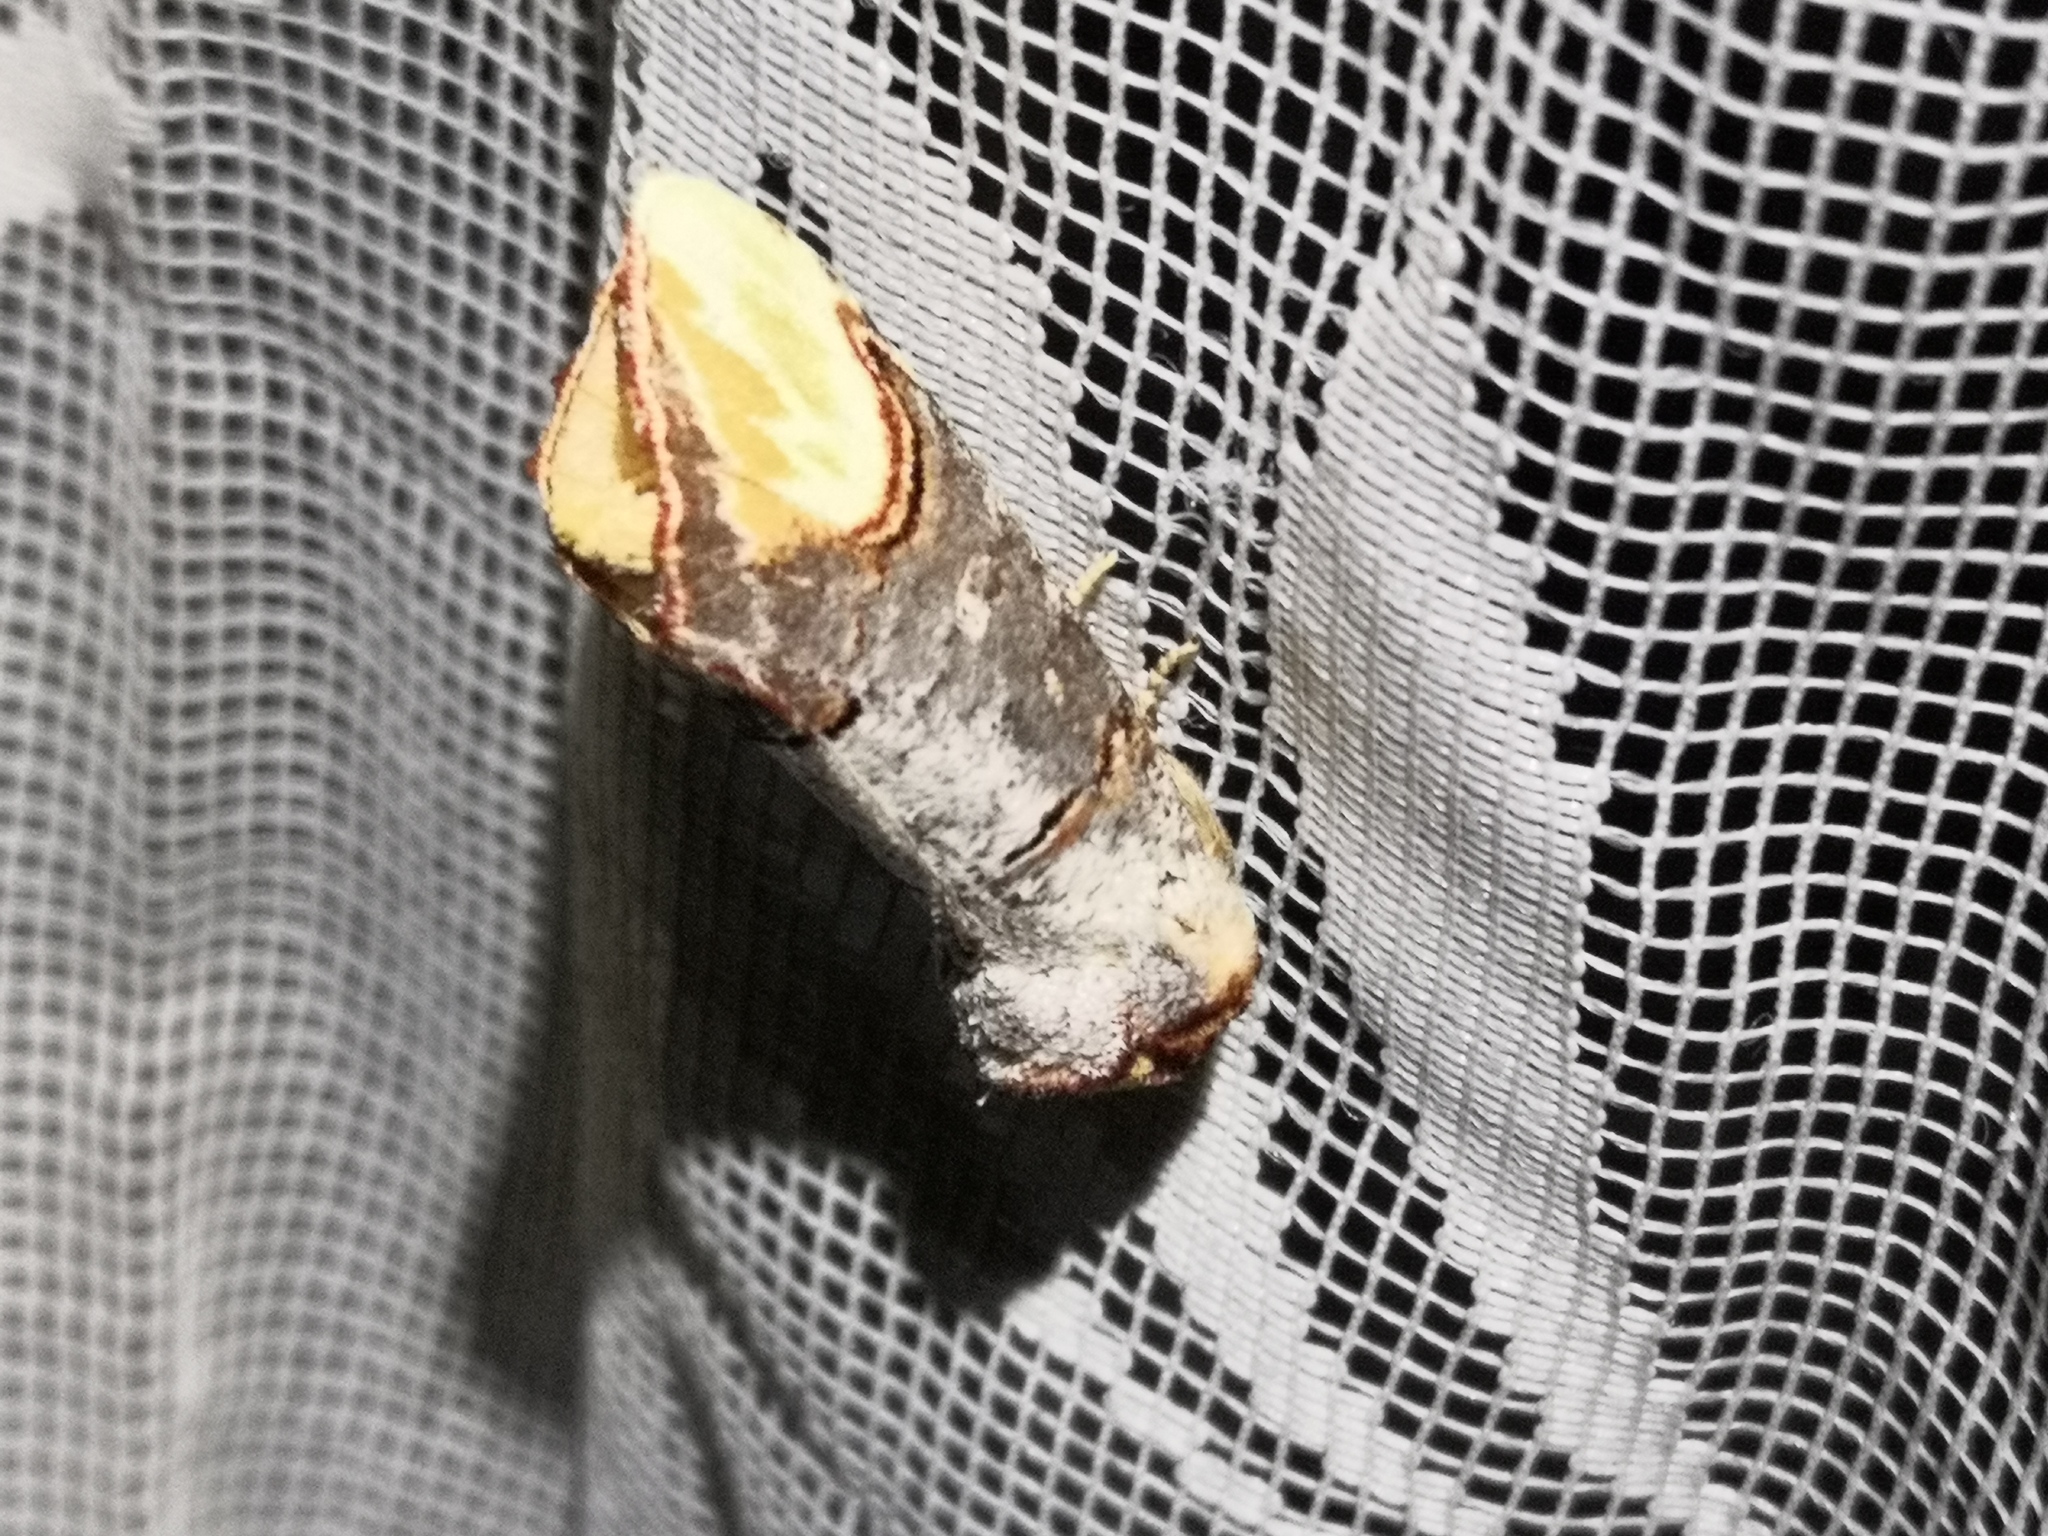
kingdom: Animalia
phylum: Arthropoda
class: Insecta
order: Lepidoptera
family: Notodontidae
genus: Phalera
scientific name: Phalera bucephala
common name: Buff-tip
